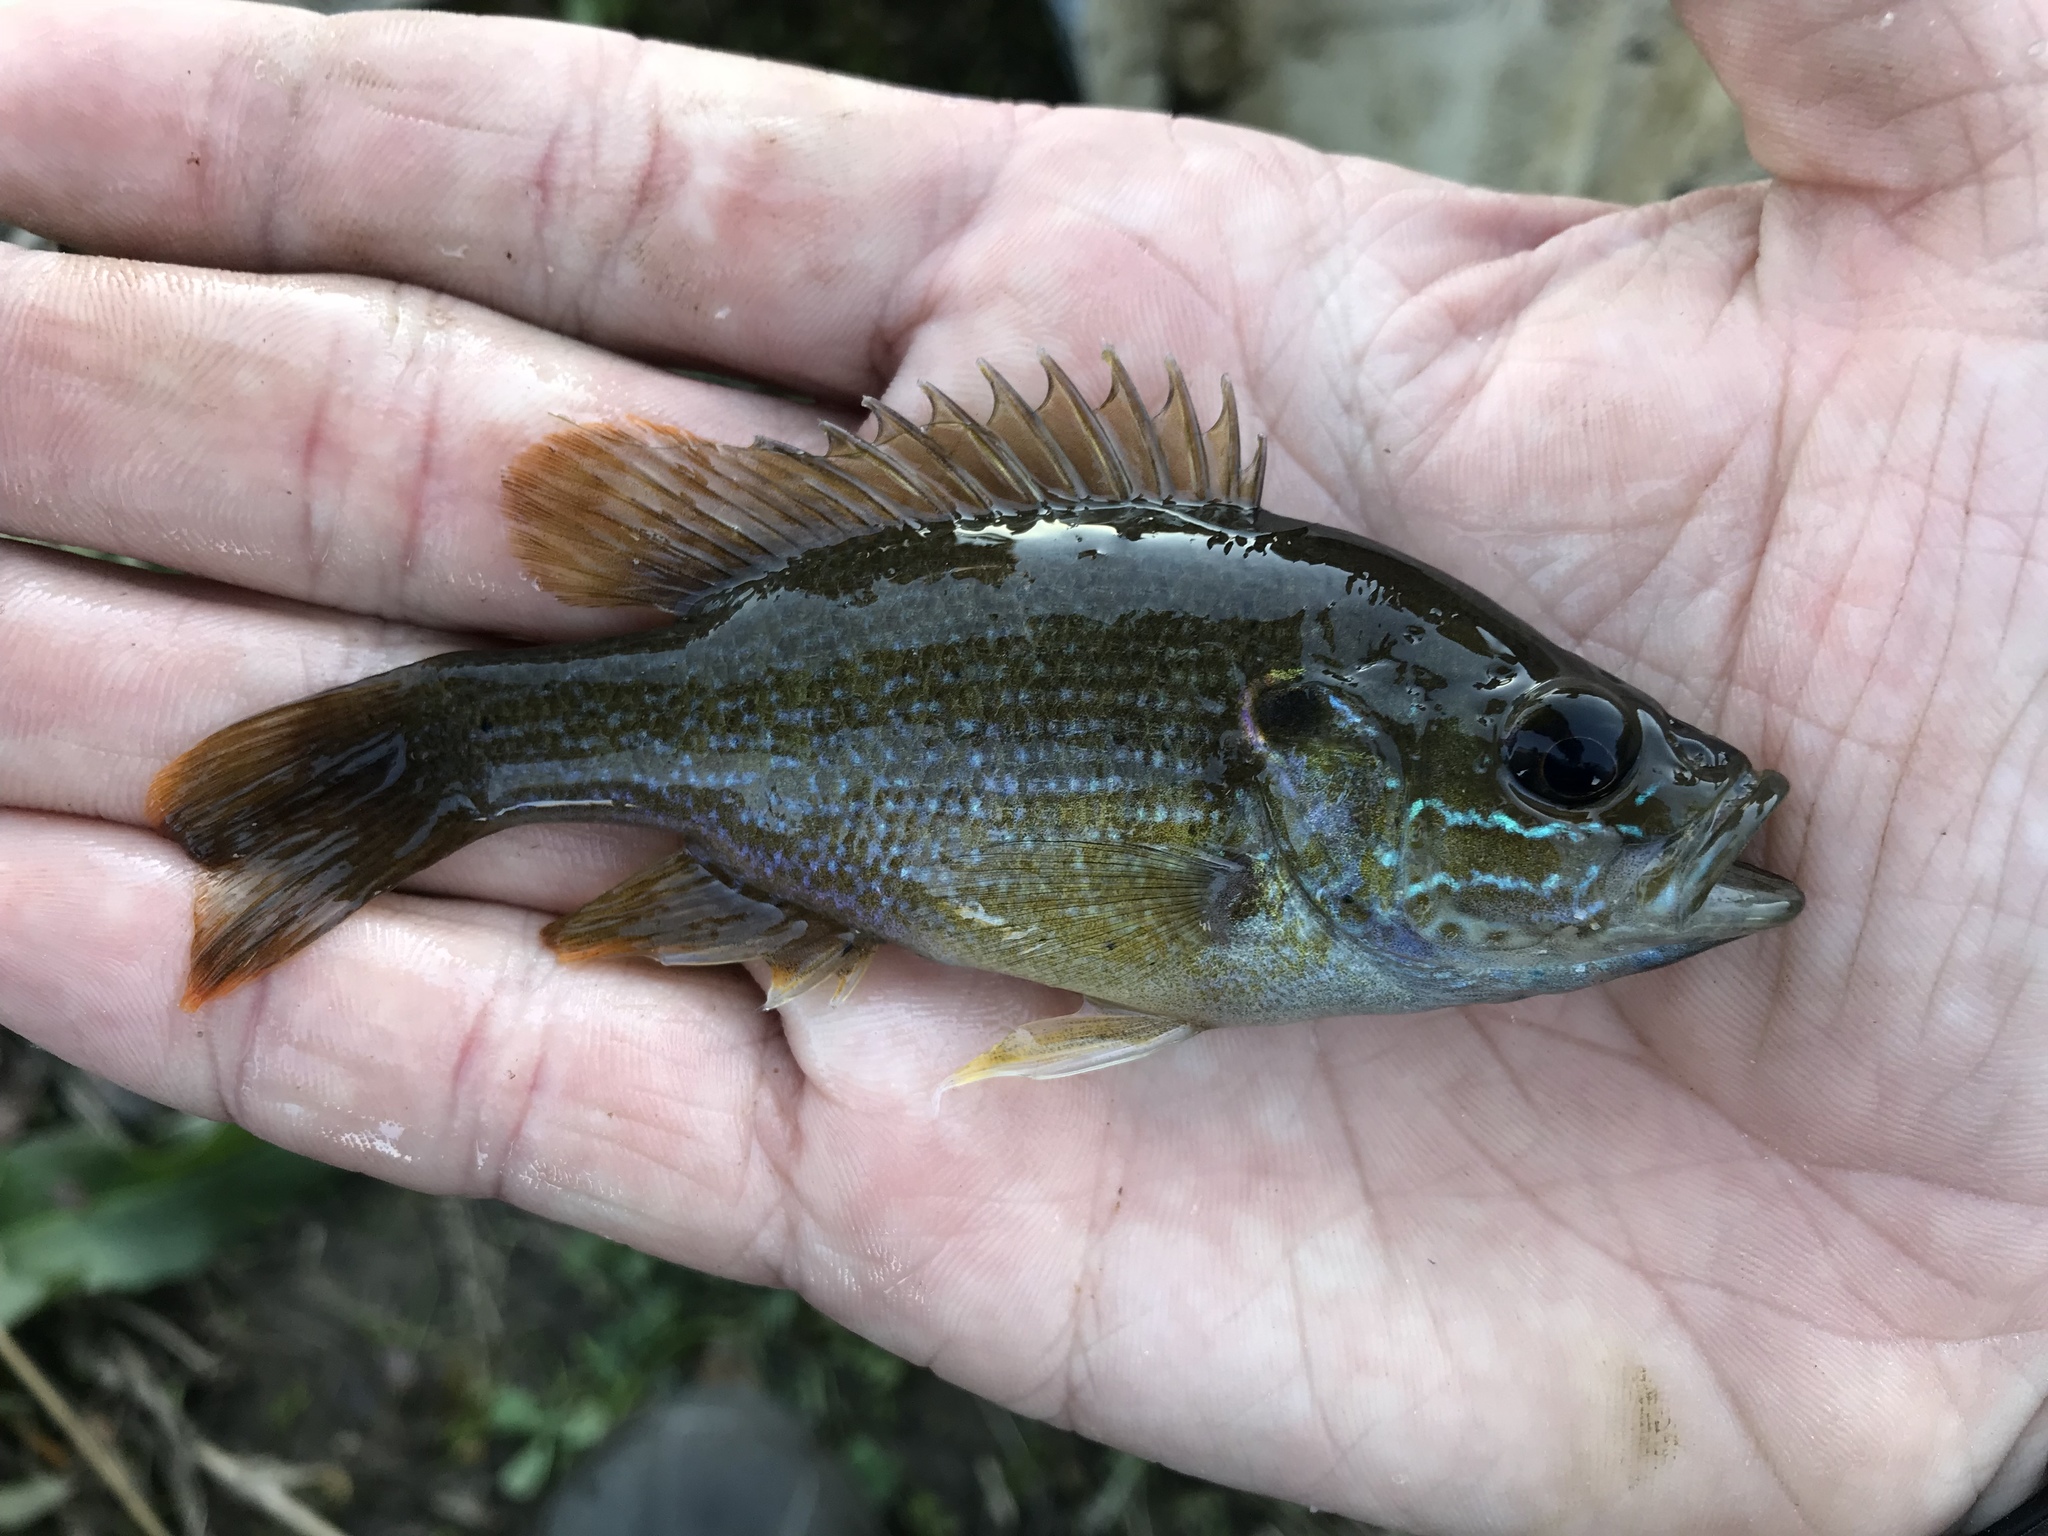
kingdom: Animalia
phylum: Chordata
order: Perciformes
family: Centrarchidae
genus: Lepomis
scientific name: Lepomis cyanellus
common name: Green sunfish
